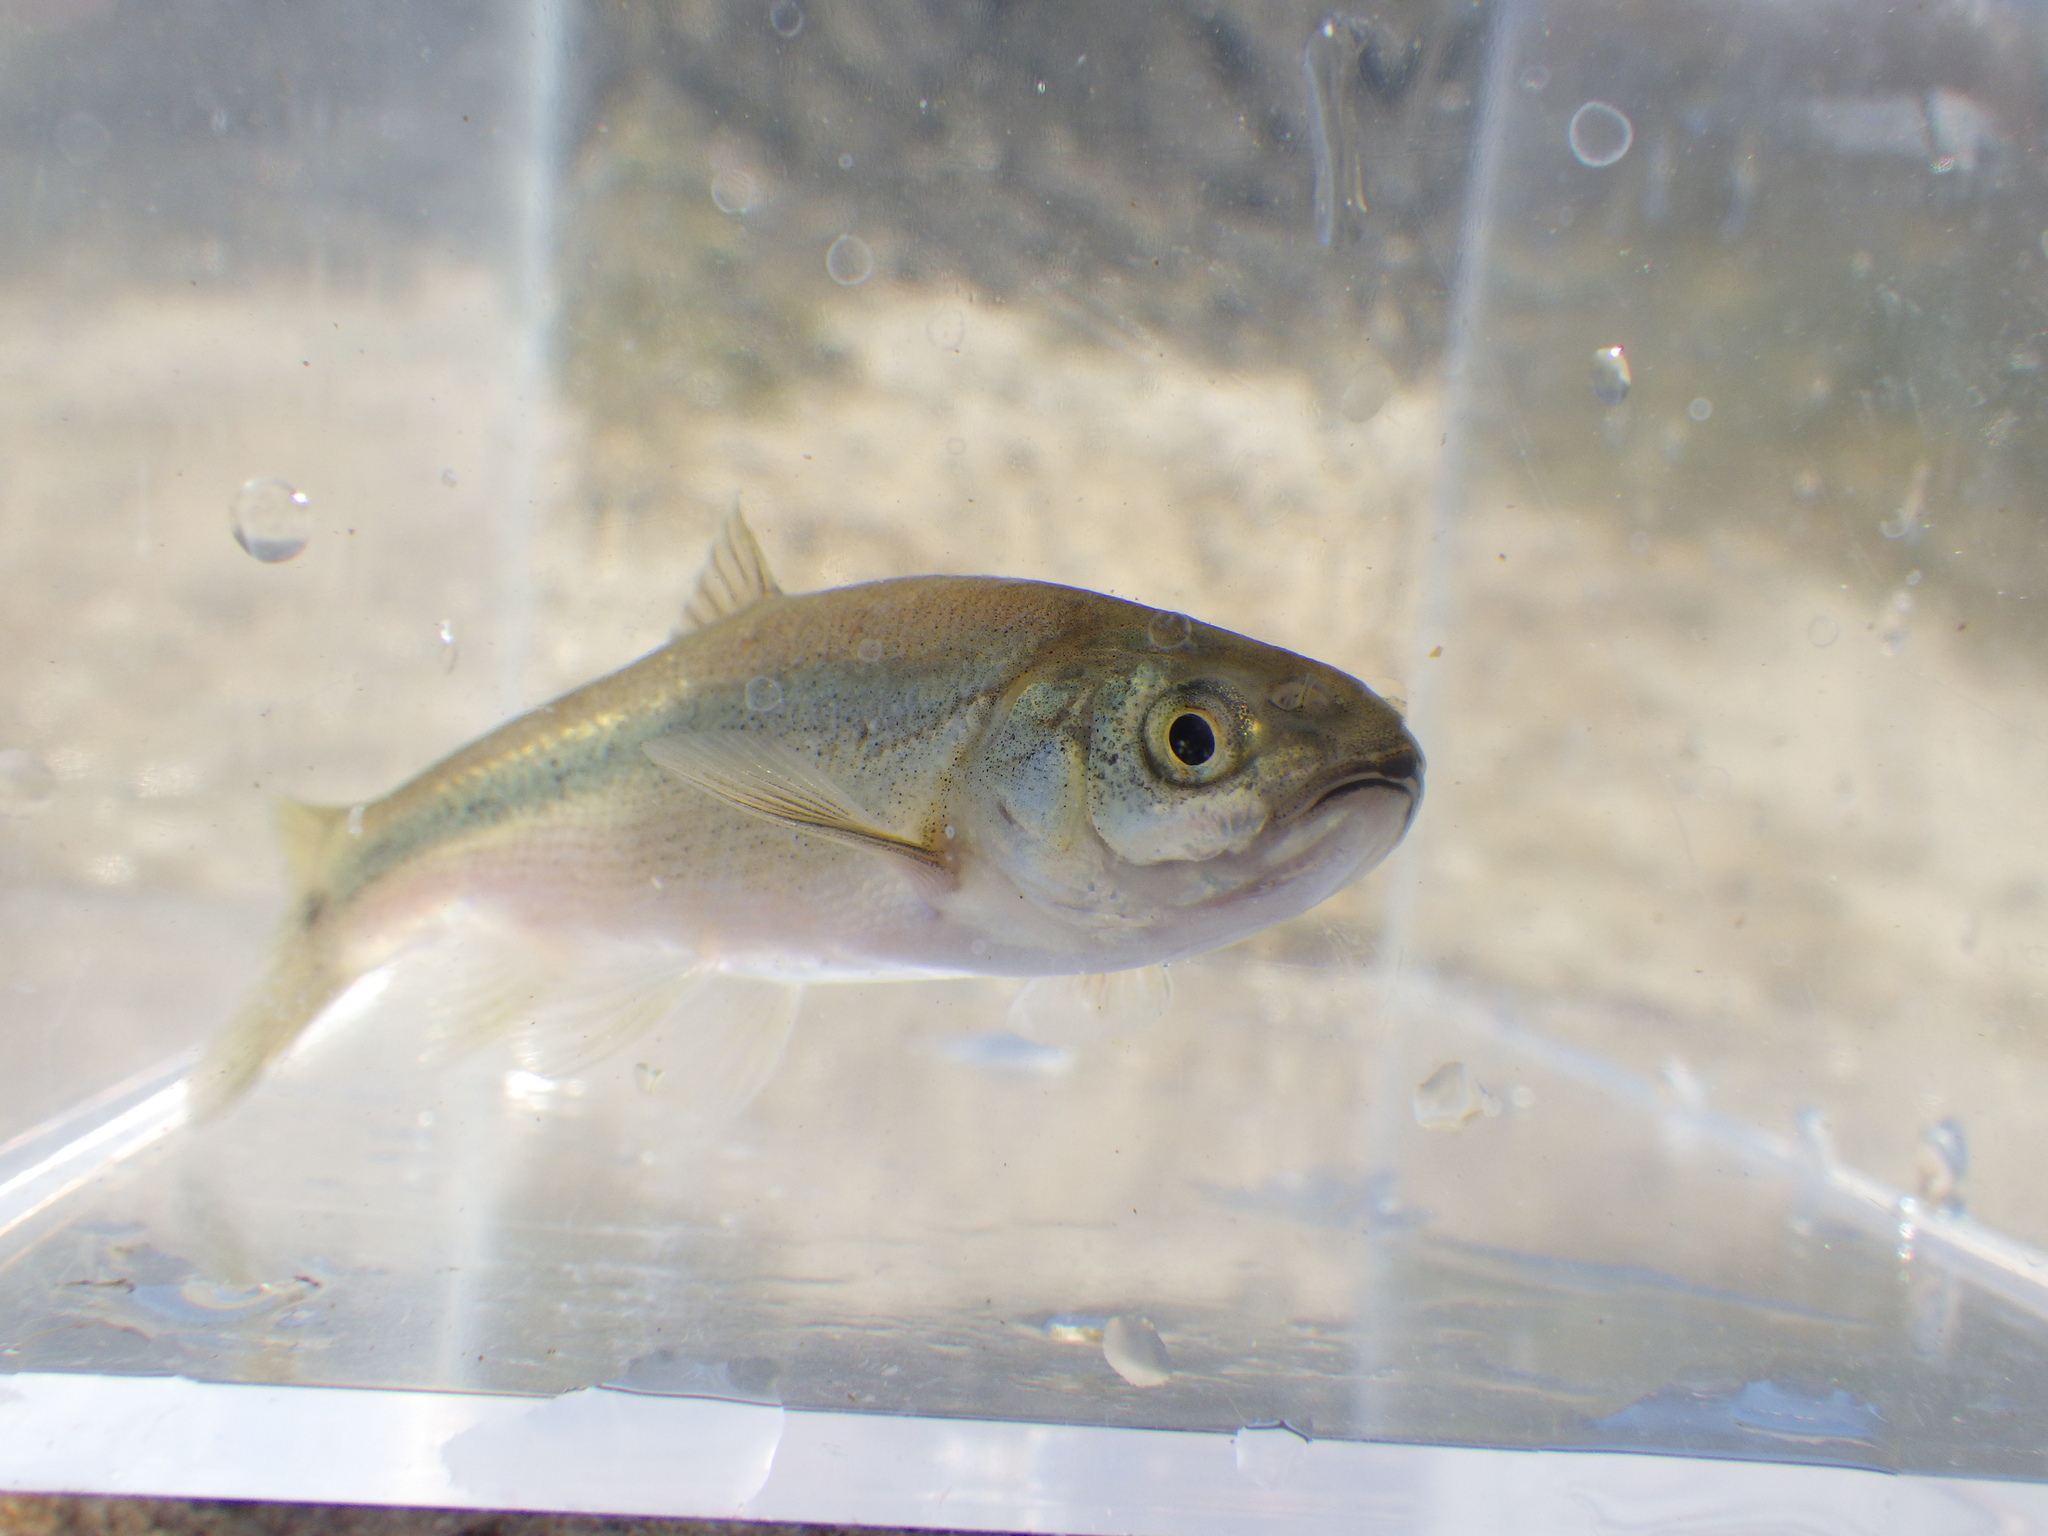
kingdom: Animalia
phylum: Chordata
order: Cypriniformes
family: Cyprinidae
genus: Gila
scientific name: Gila orcuttii
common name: Arroyo chub
